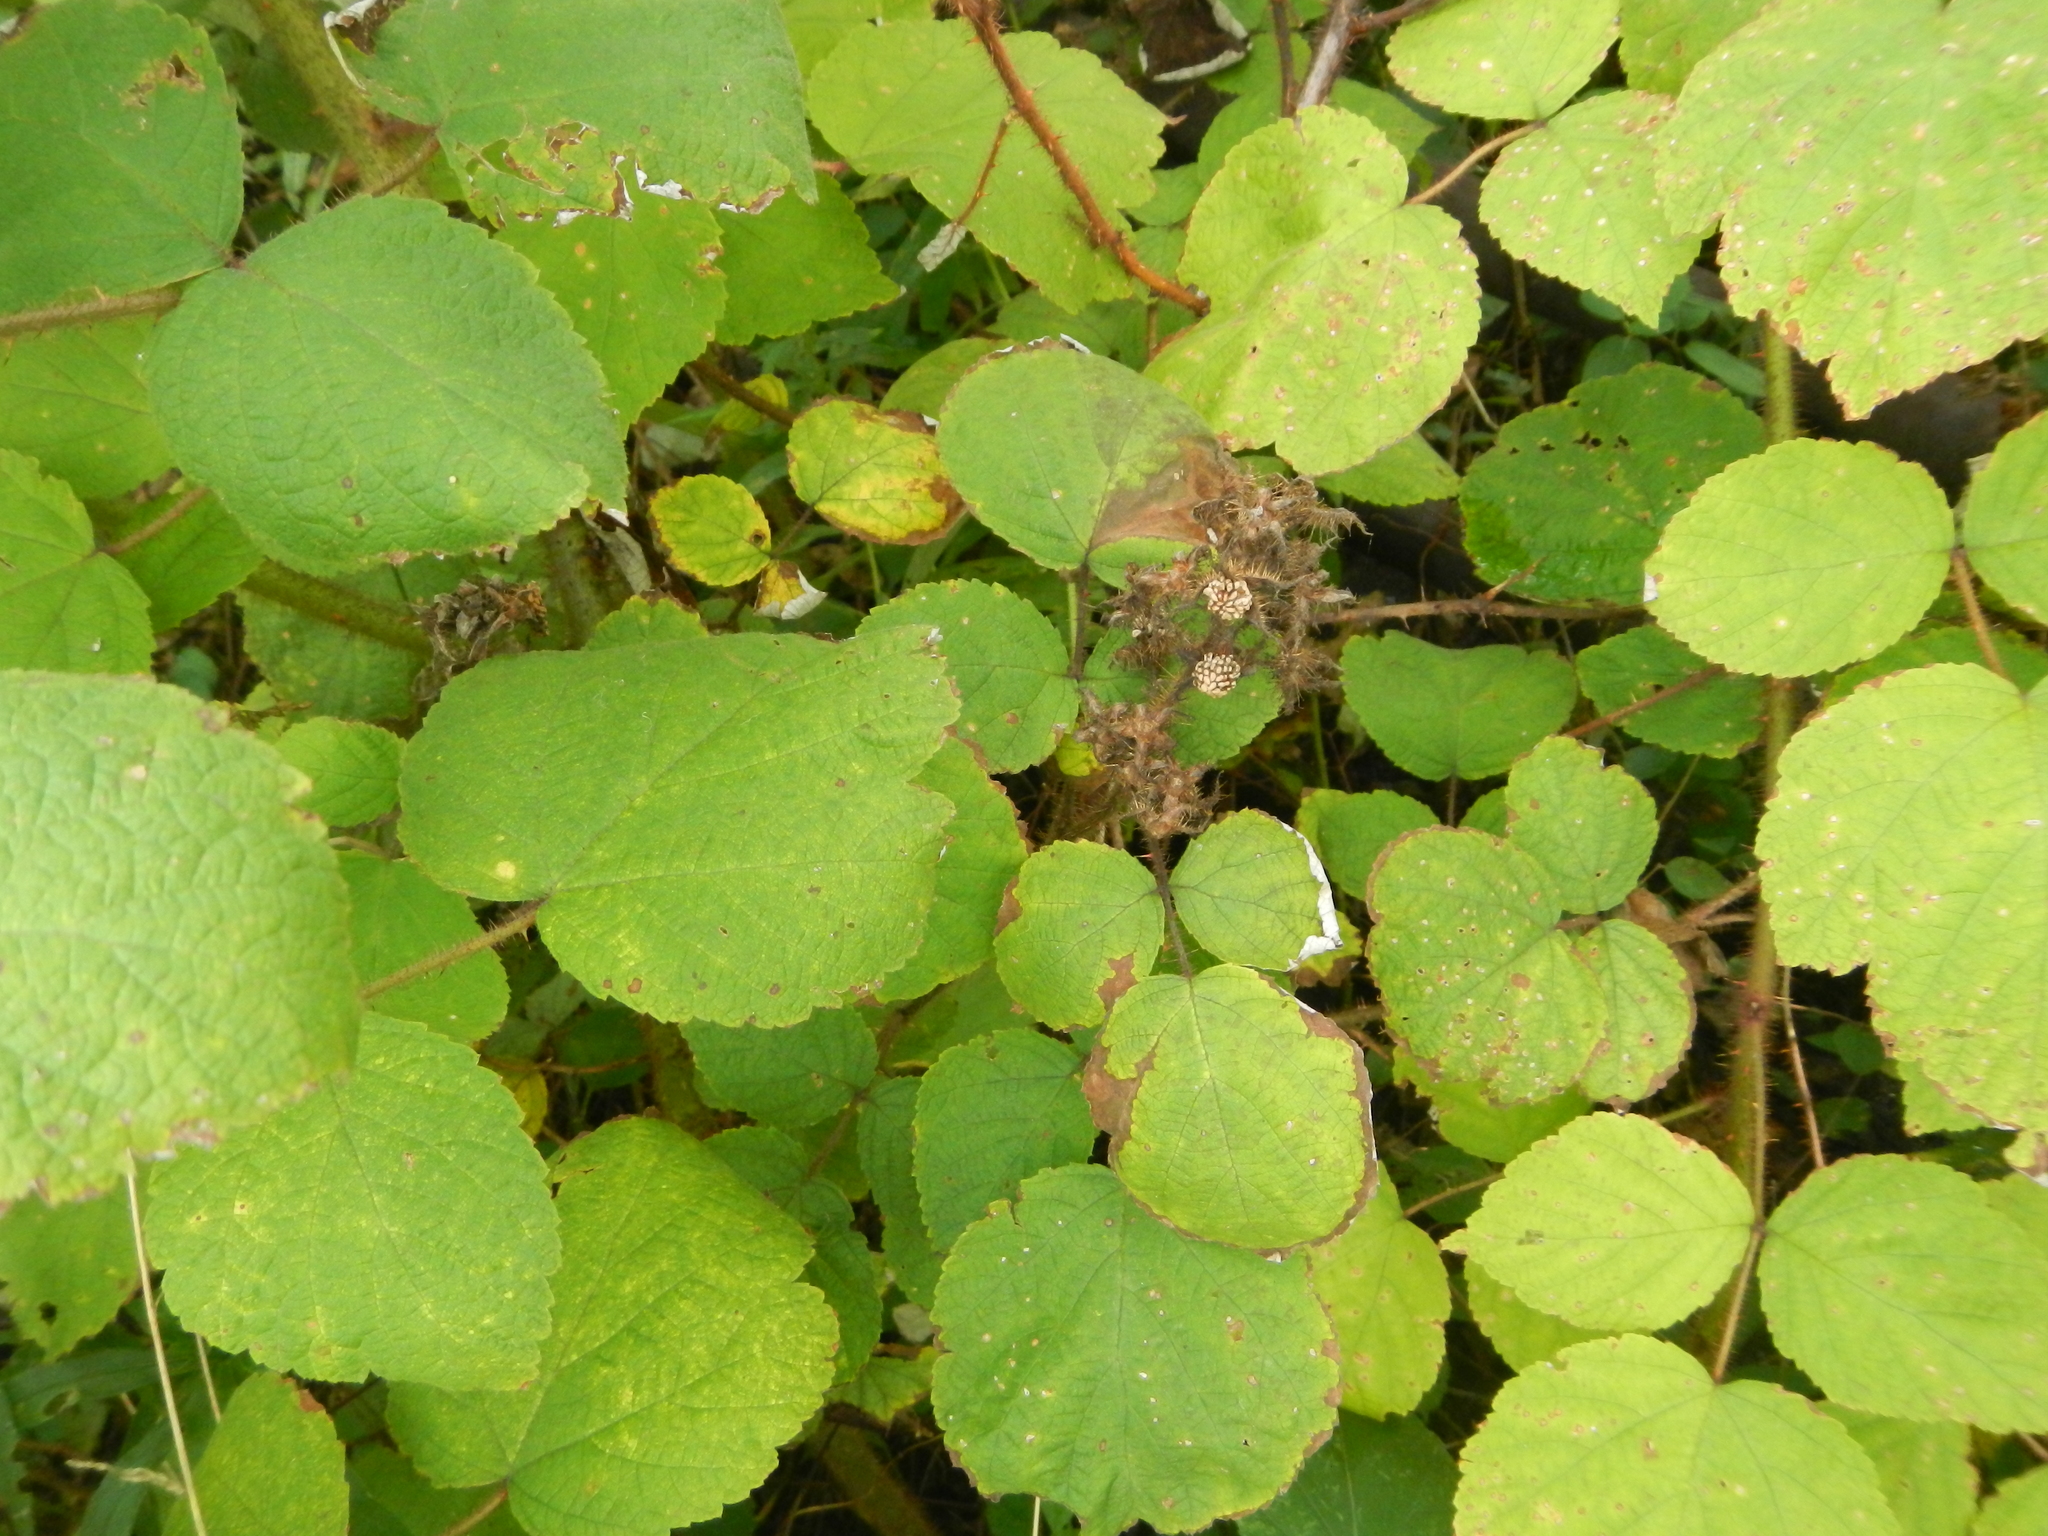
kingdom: Plantae
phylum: Tracheophyta
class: Magnoliopsida
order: Rosales
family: Rosaceae
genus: Rubus
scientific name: Rubus phoenicolasius
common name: Japanese wineberry
